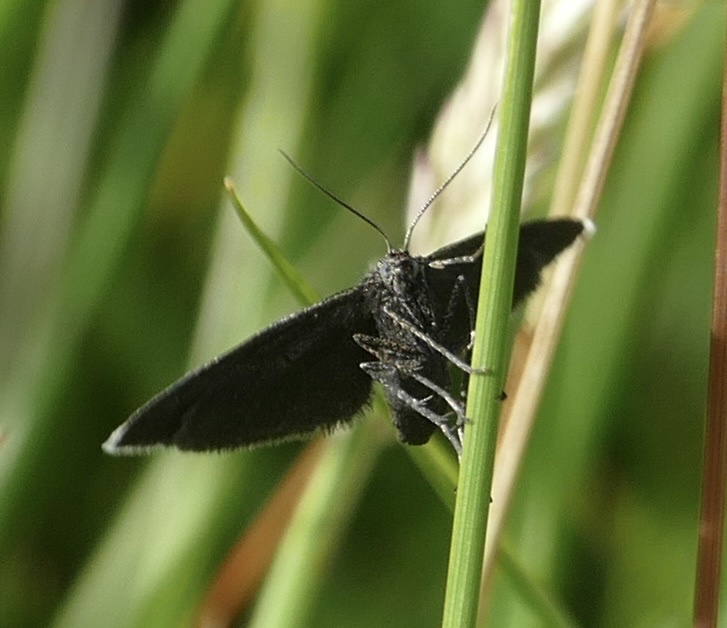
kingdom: Animalia
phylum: Arthropoda
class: Insecta
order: Lepidoptera
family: Geometridae
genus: Odezia
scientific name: Odezia atrata
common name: Chimney sweeper
